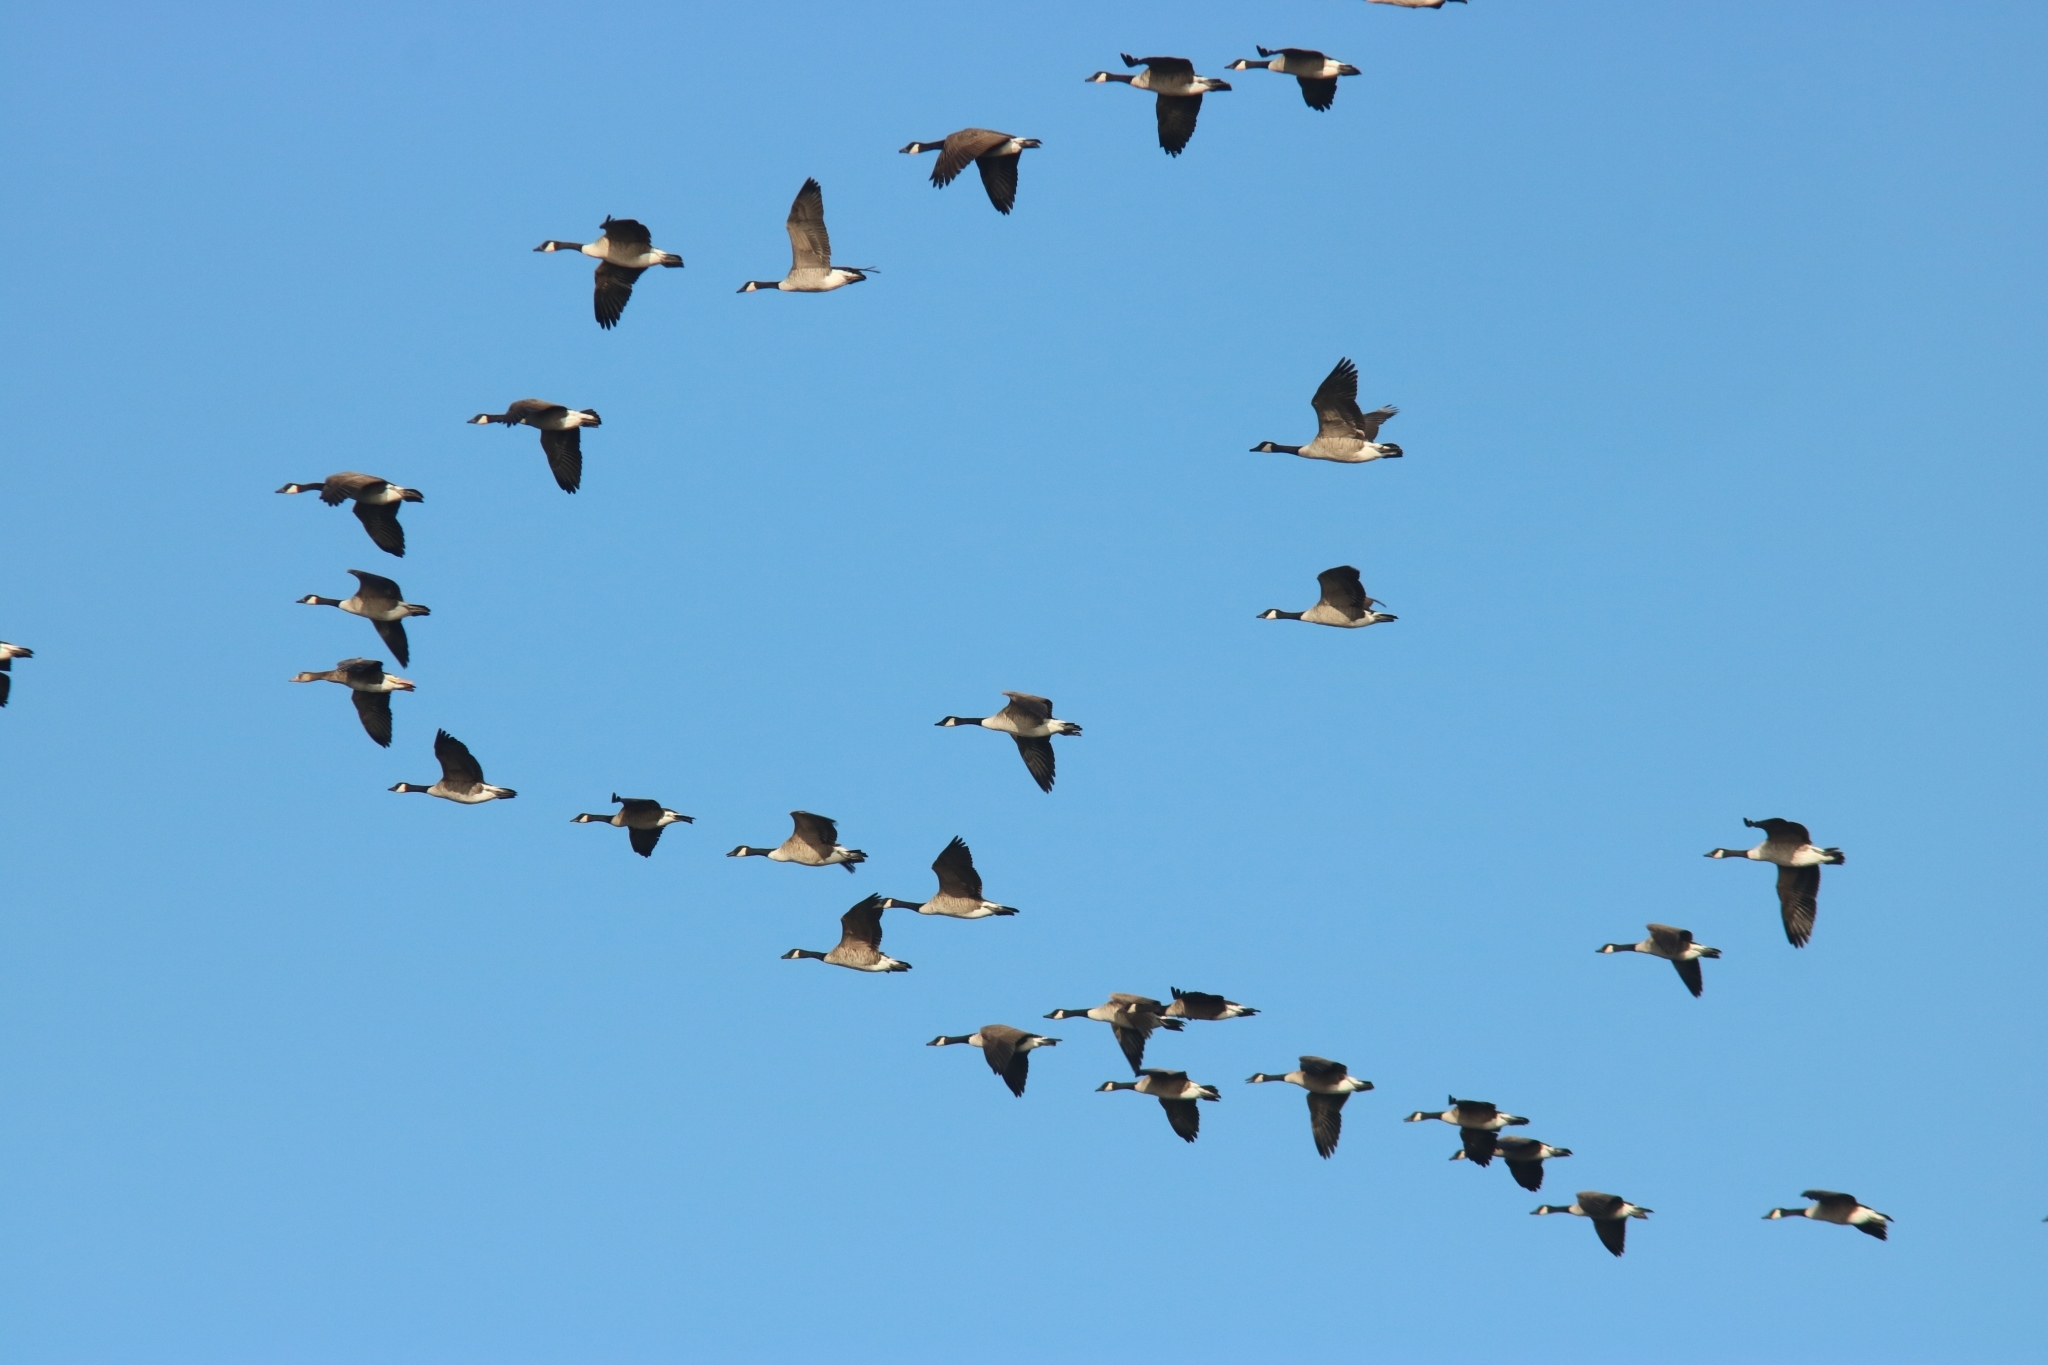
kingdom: Animalia
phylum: Chordata
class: Aves
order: Anseriformes
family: Anatidae
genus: Branta
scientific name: Branta canadensis
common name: Canada goose
